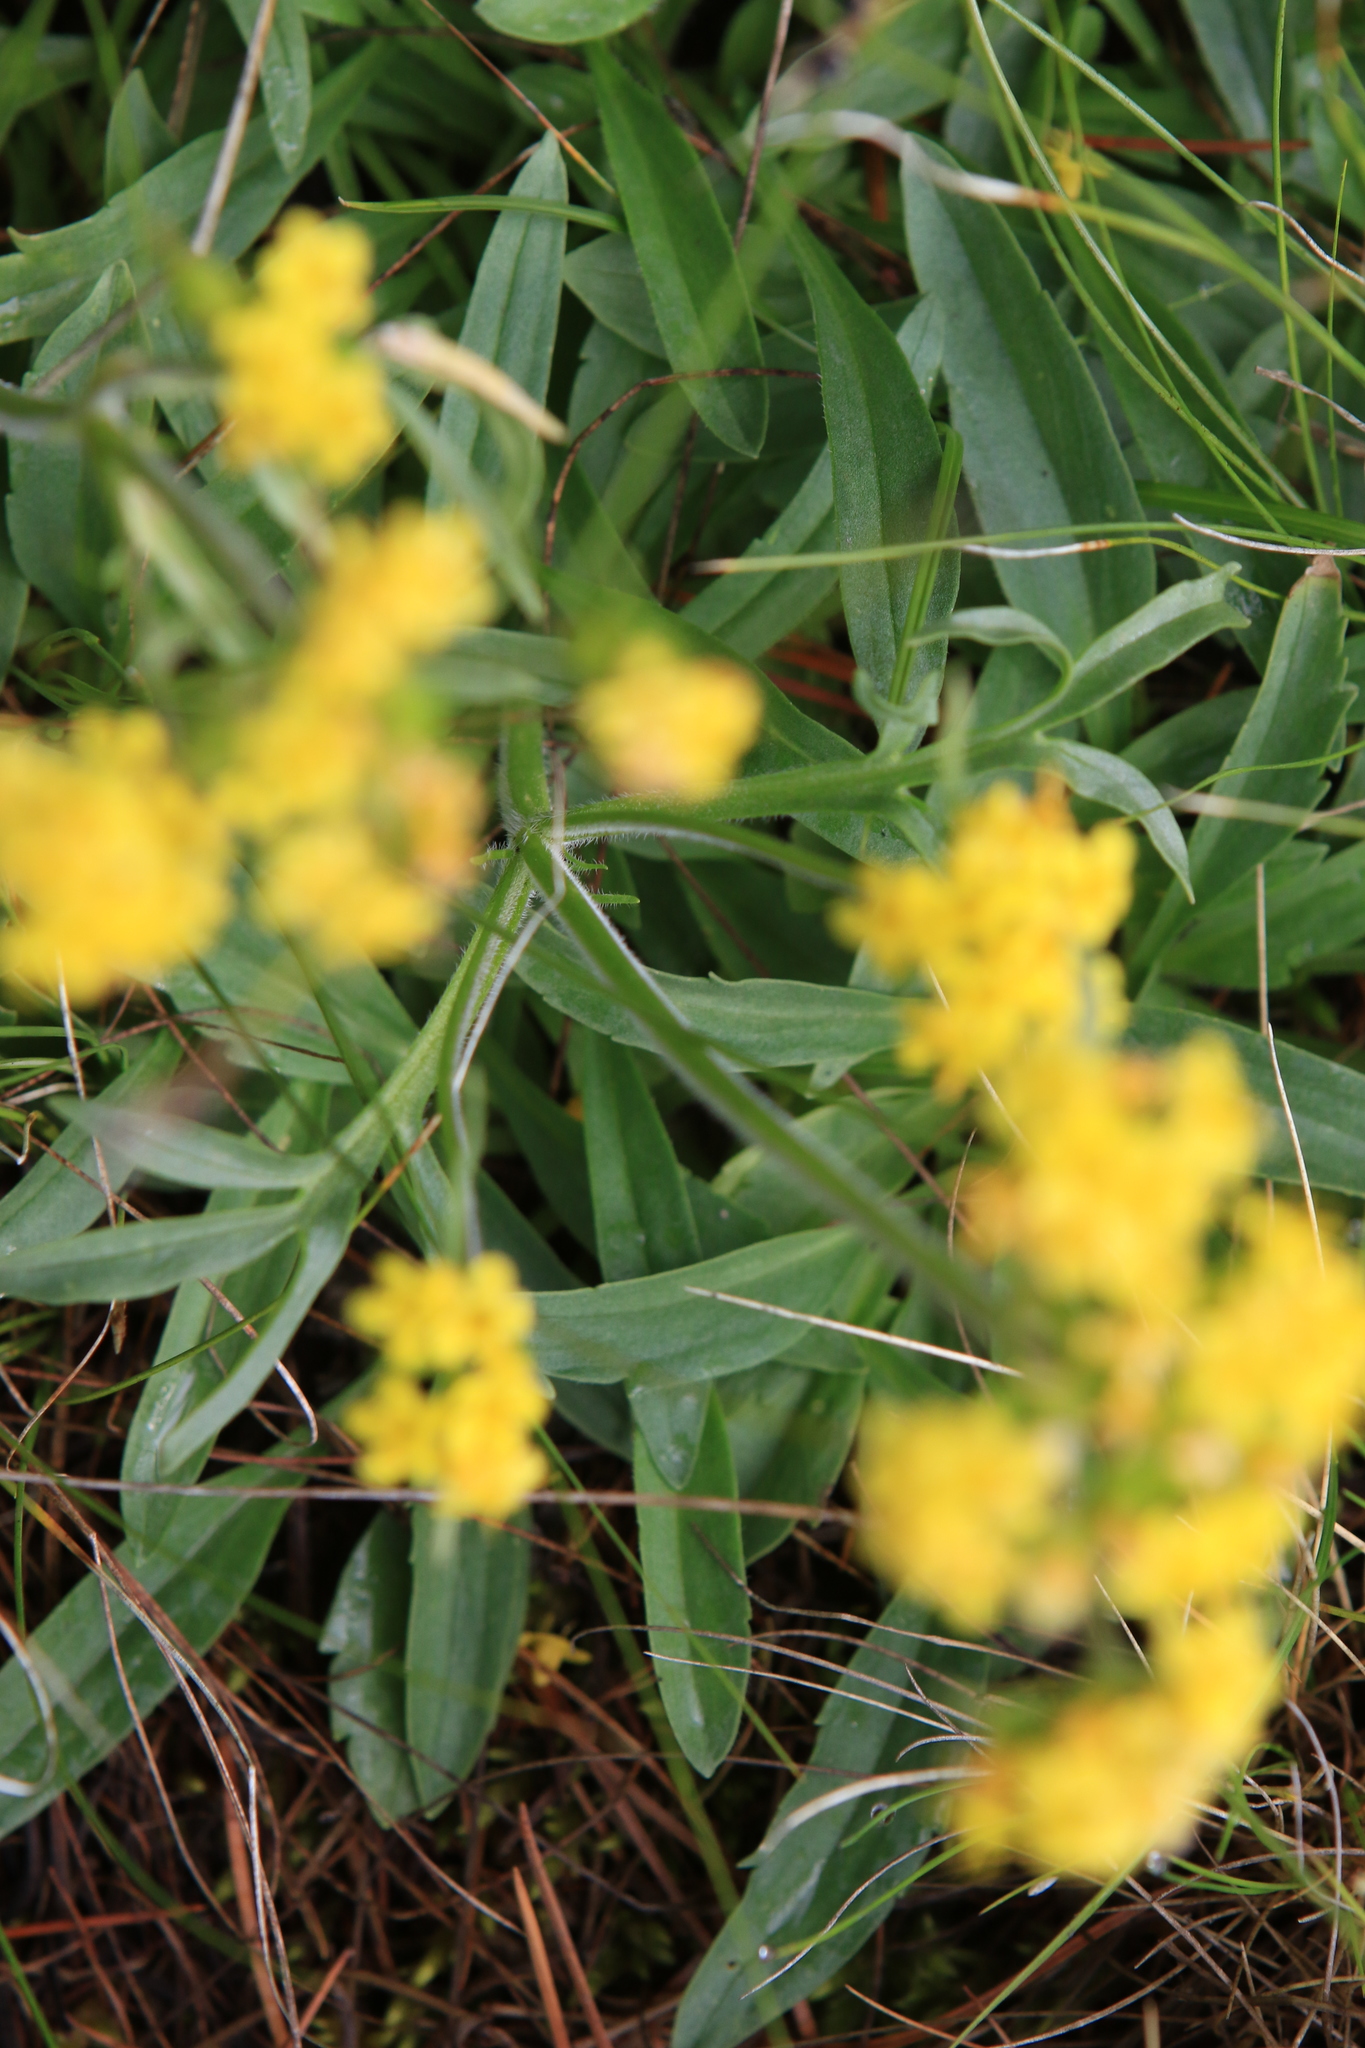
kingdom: Plantae
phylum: Tracheophyta
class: Magnoliopsida
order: Dipsacales
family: Caprifoliaceae
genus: Patrinia
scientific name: Patrinia sibirica
